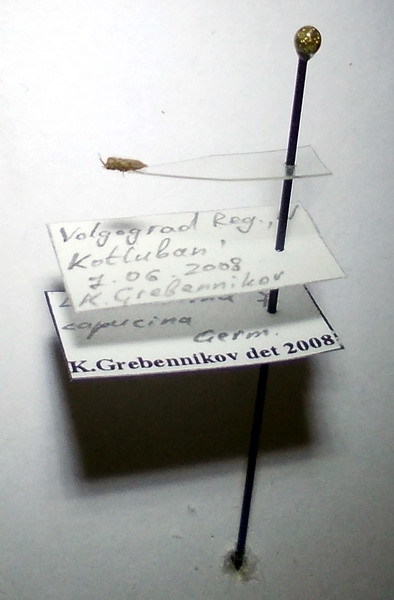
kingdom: Animalia
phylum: Arthropoda
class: Insecta
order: Hemiptera
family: Tingidae
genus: Lasiacantha
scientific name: Lasiacantha capucina
